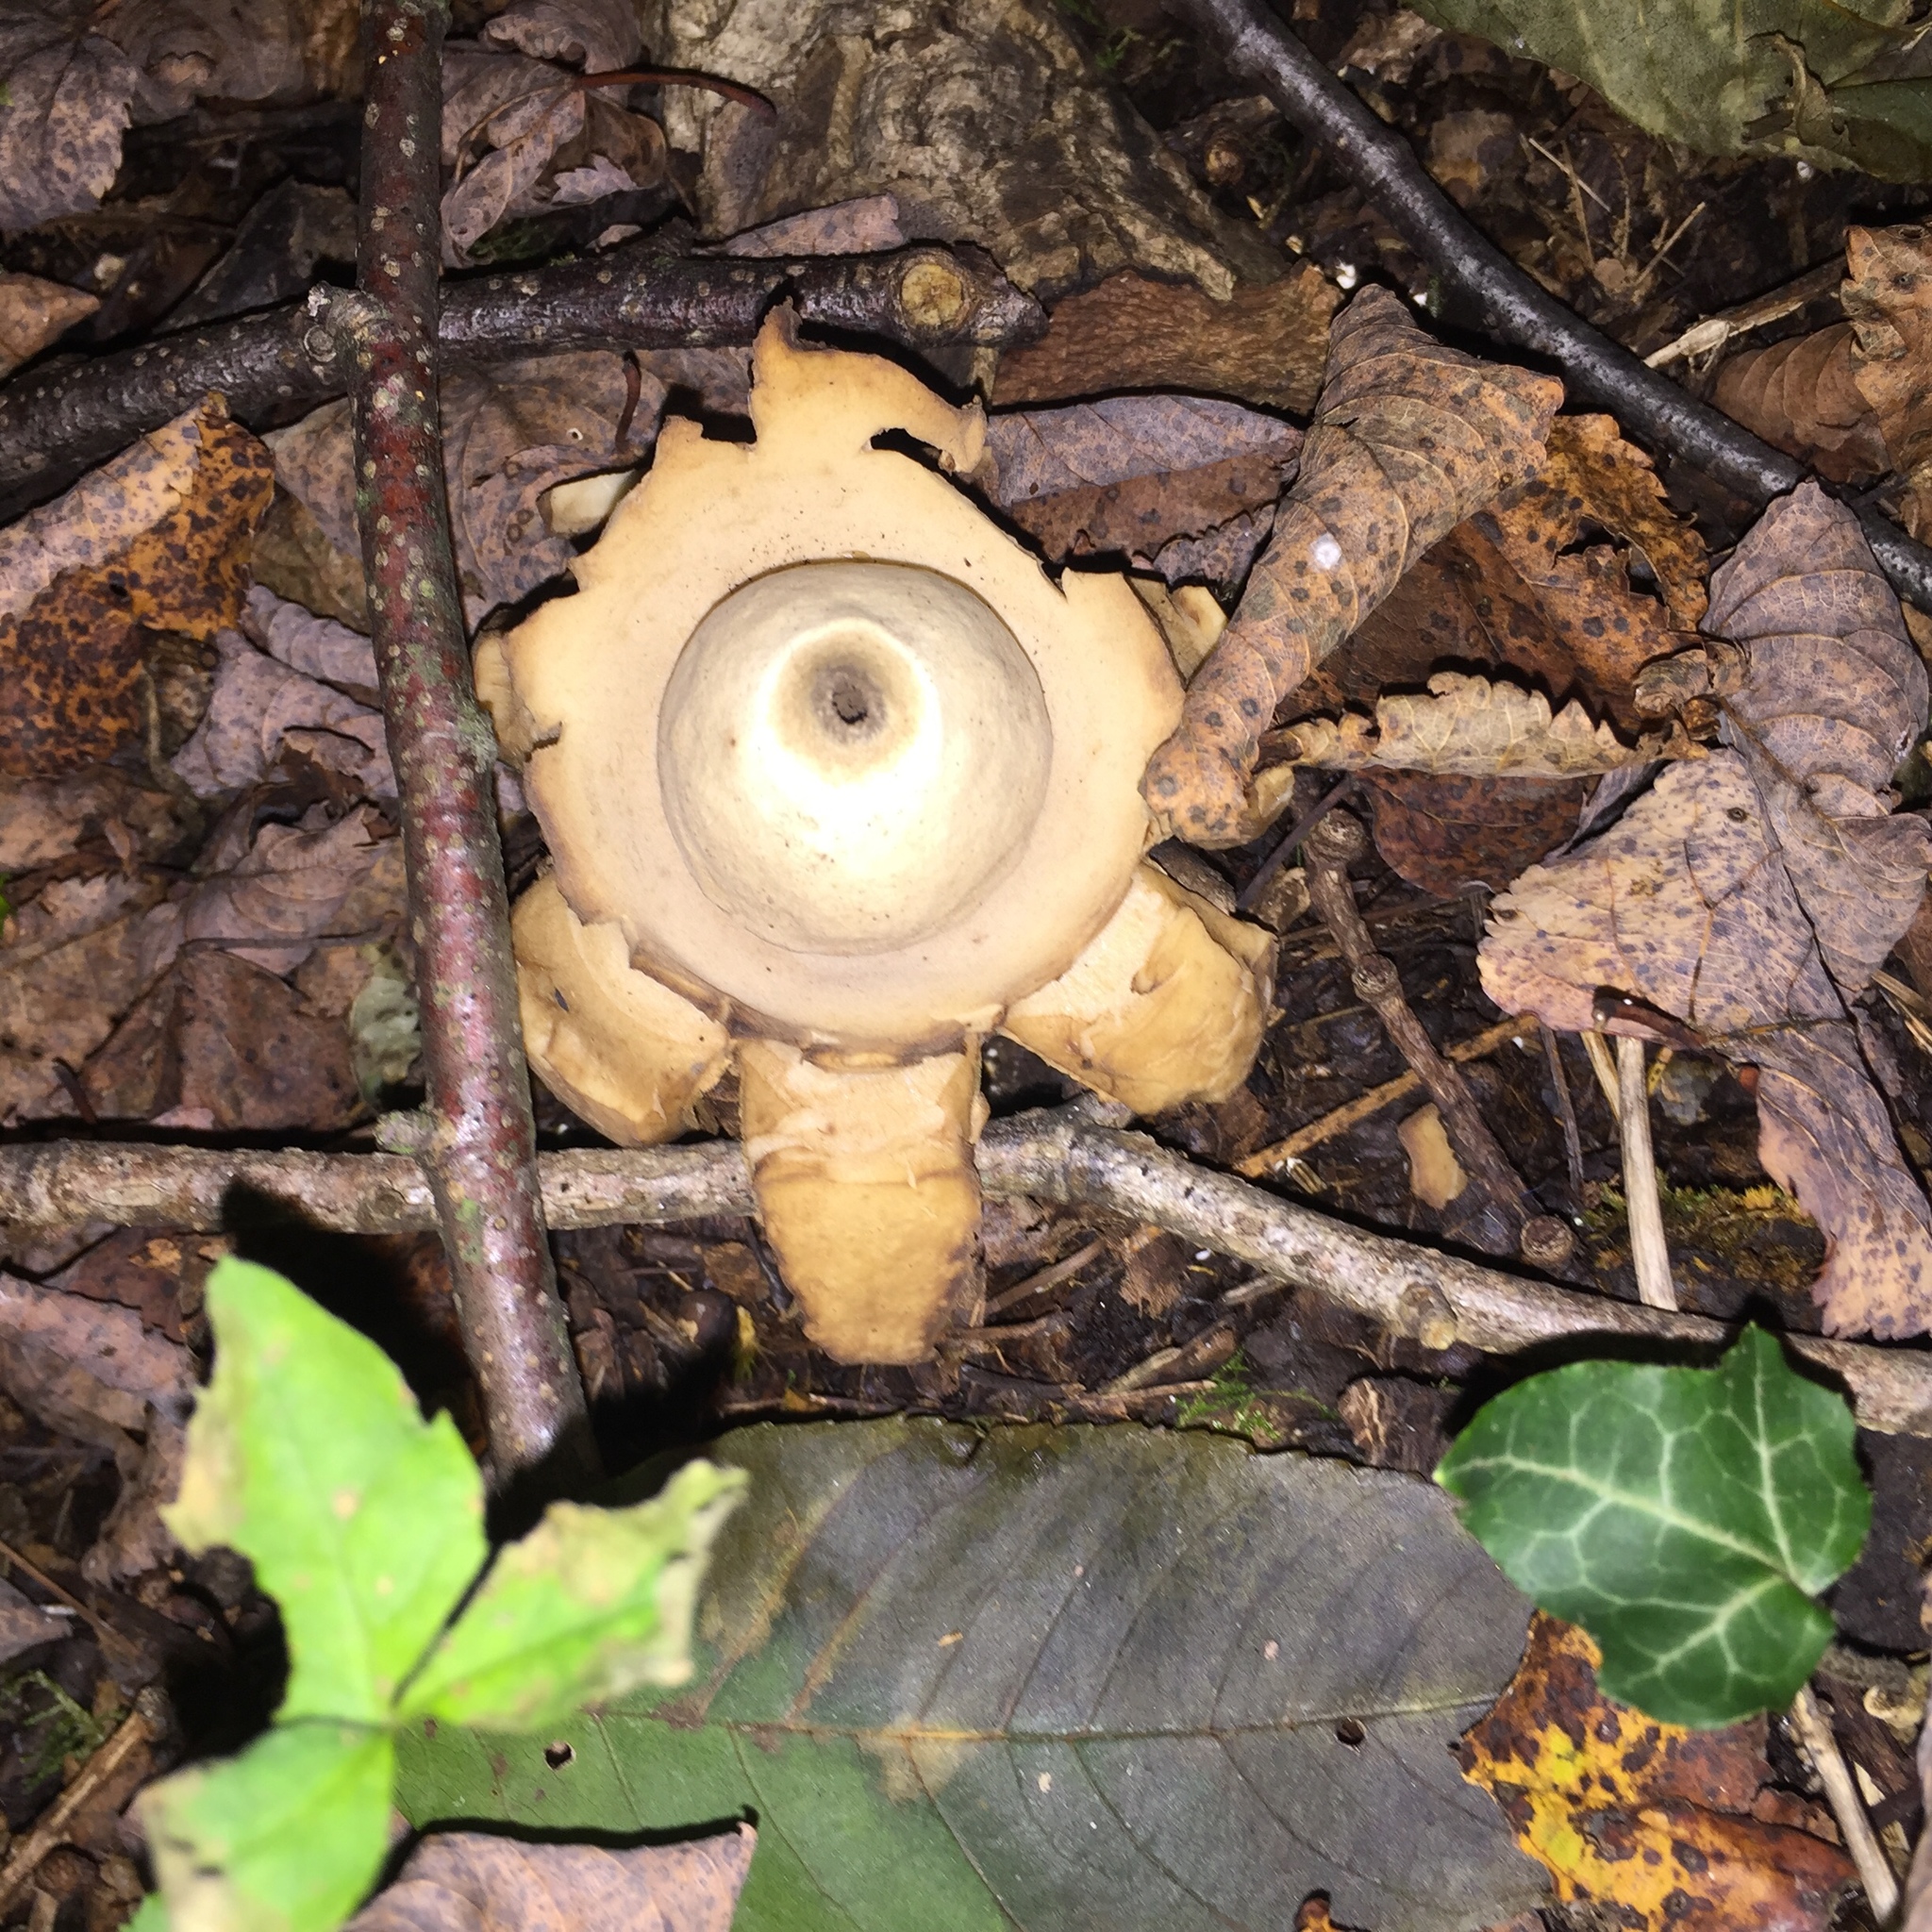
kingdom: Fungi
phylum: Basidiomycota
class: Agaricomycetes
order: Geastrales
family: Geastraceae
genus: Geastrum
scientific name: Geastrum triplex
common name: Collared earthstar
